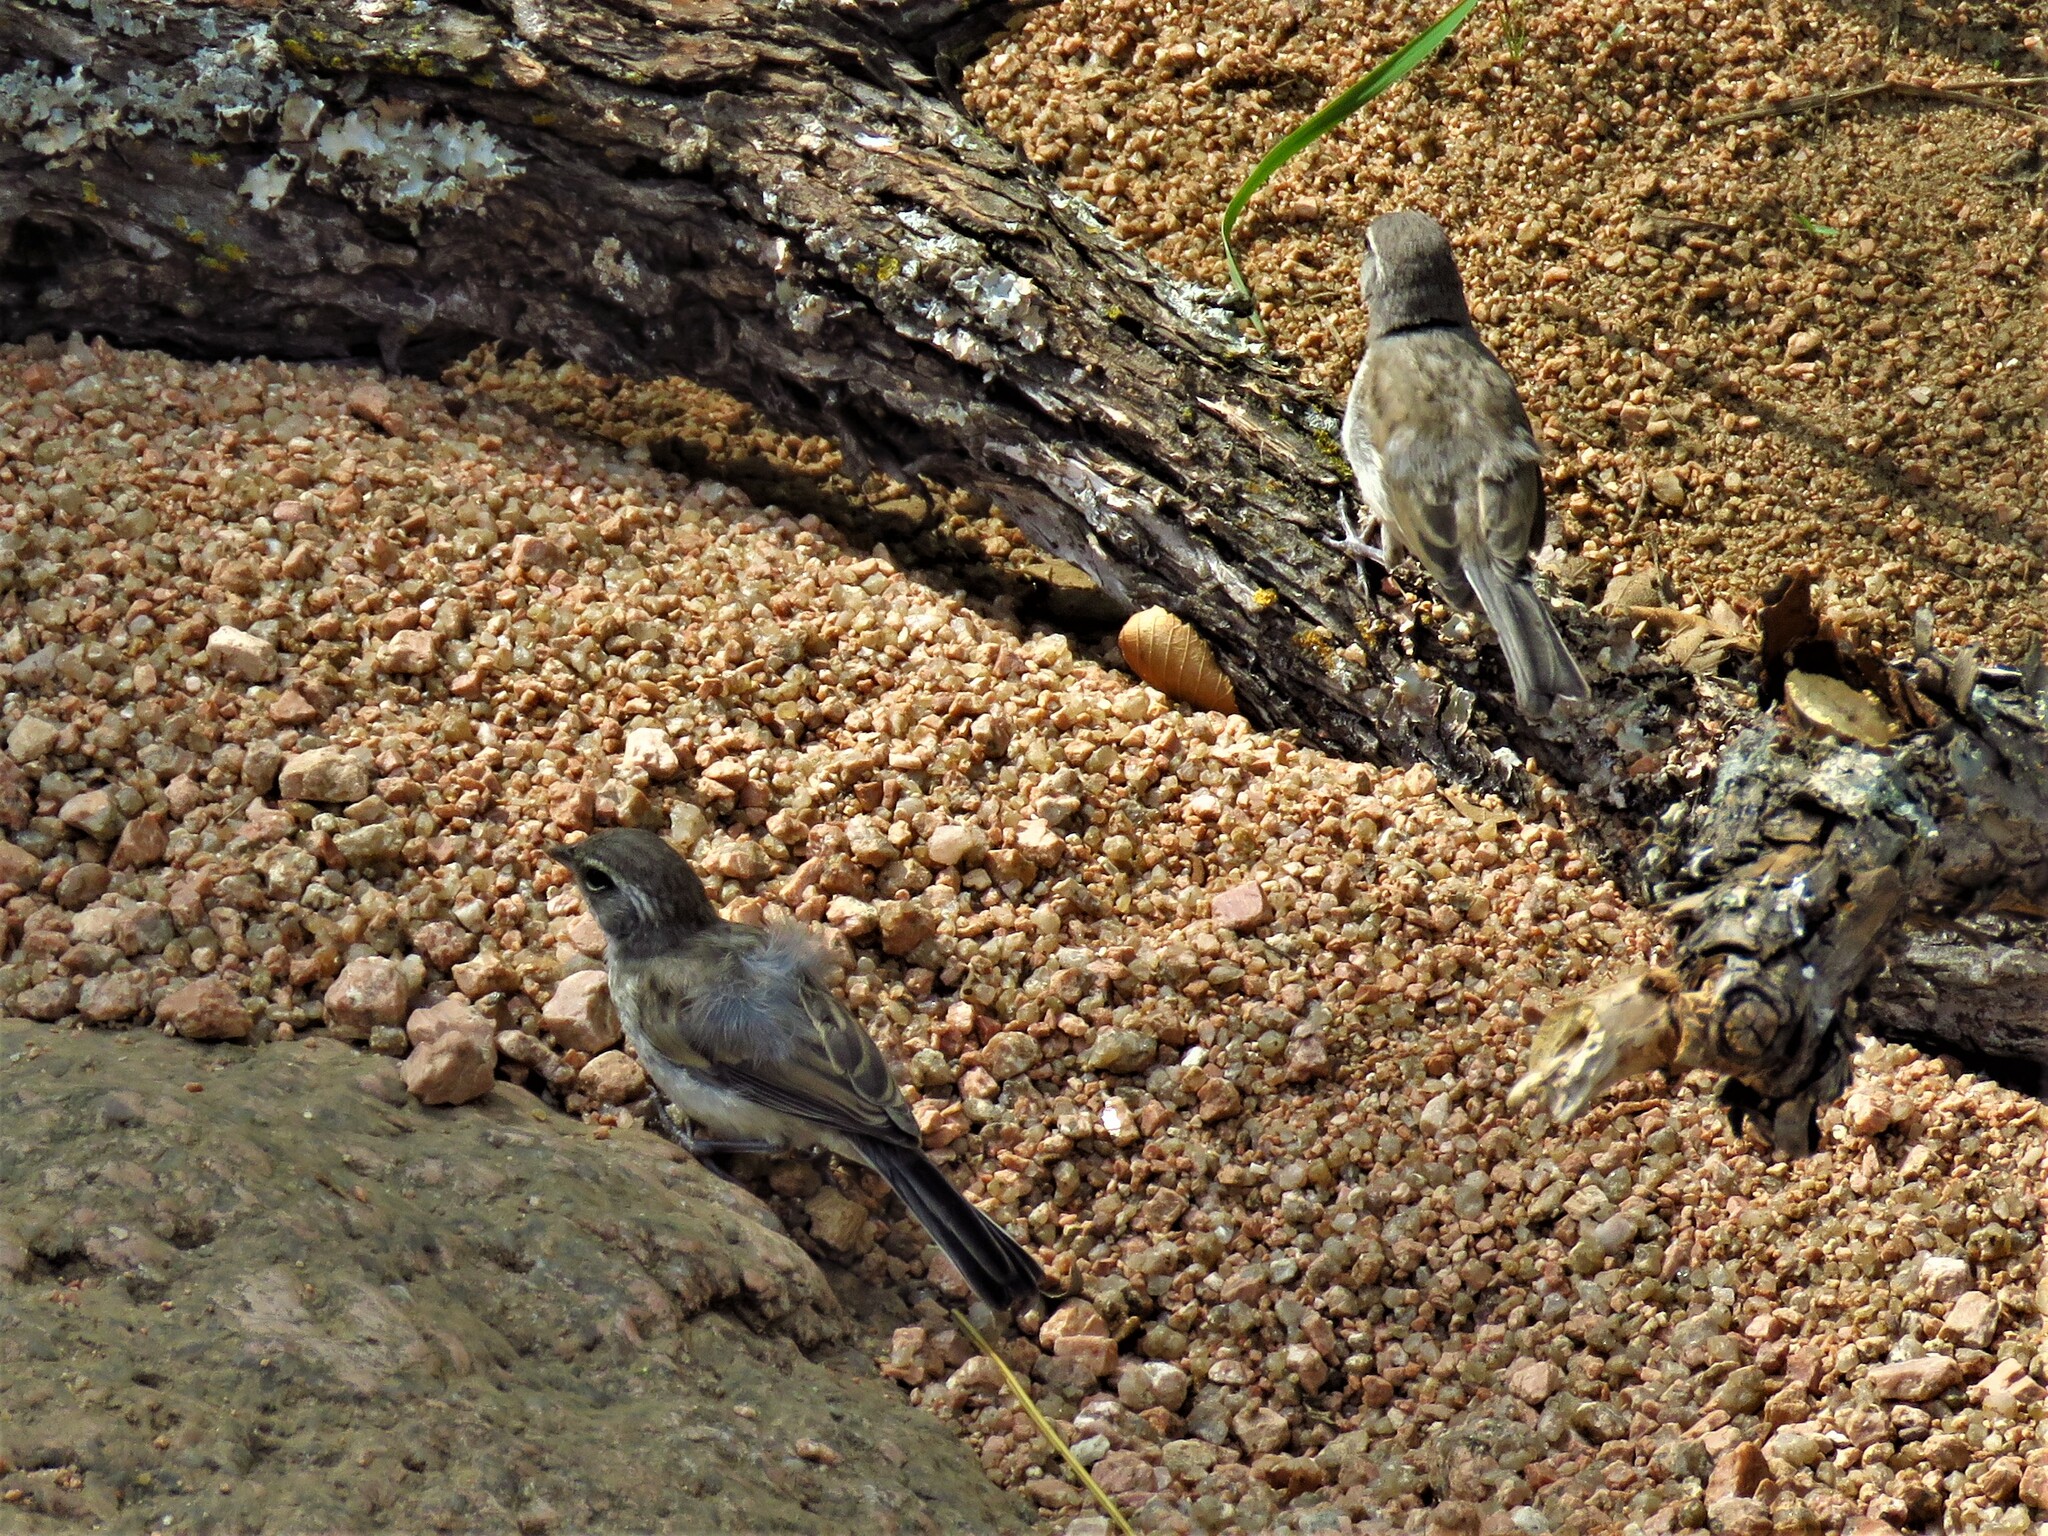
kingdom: Animalia
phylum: Chordata
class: Aves
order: Passeriformes
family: Passerellidae
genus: Amphispiza
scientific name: Amphispiza bilineata
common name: Black-throated sparrow
